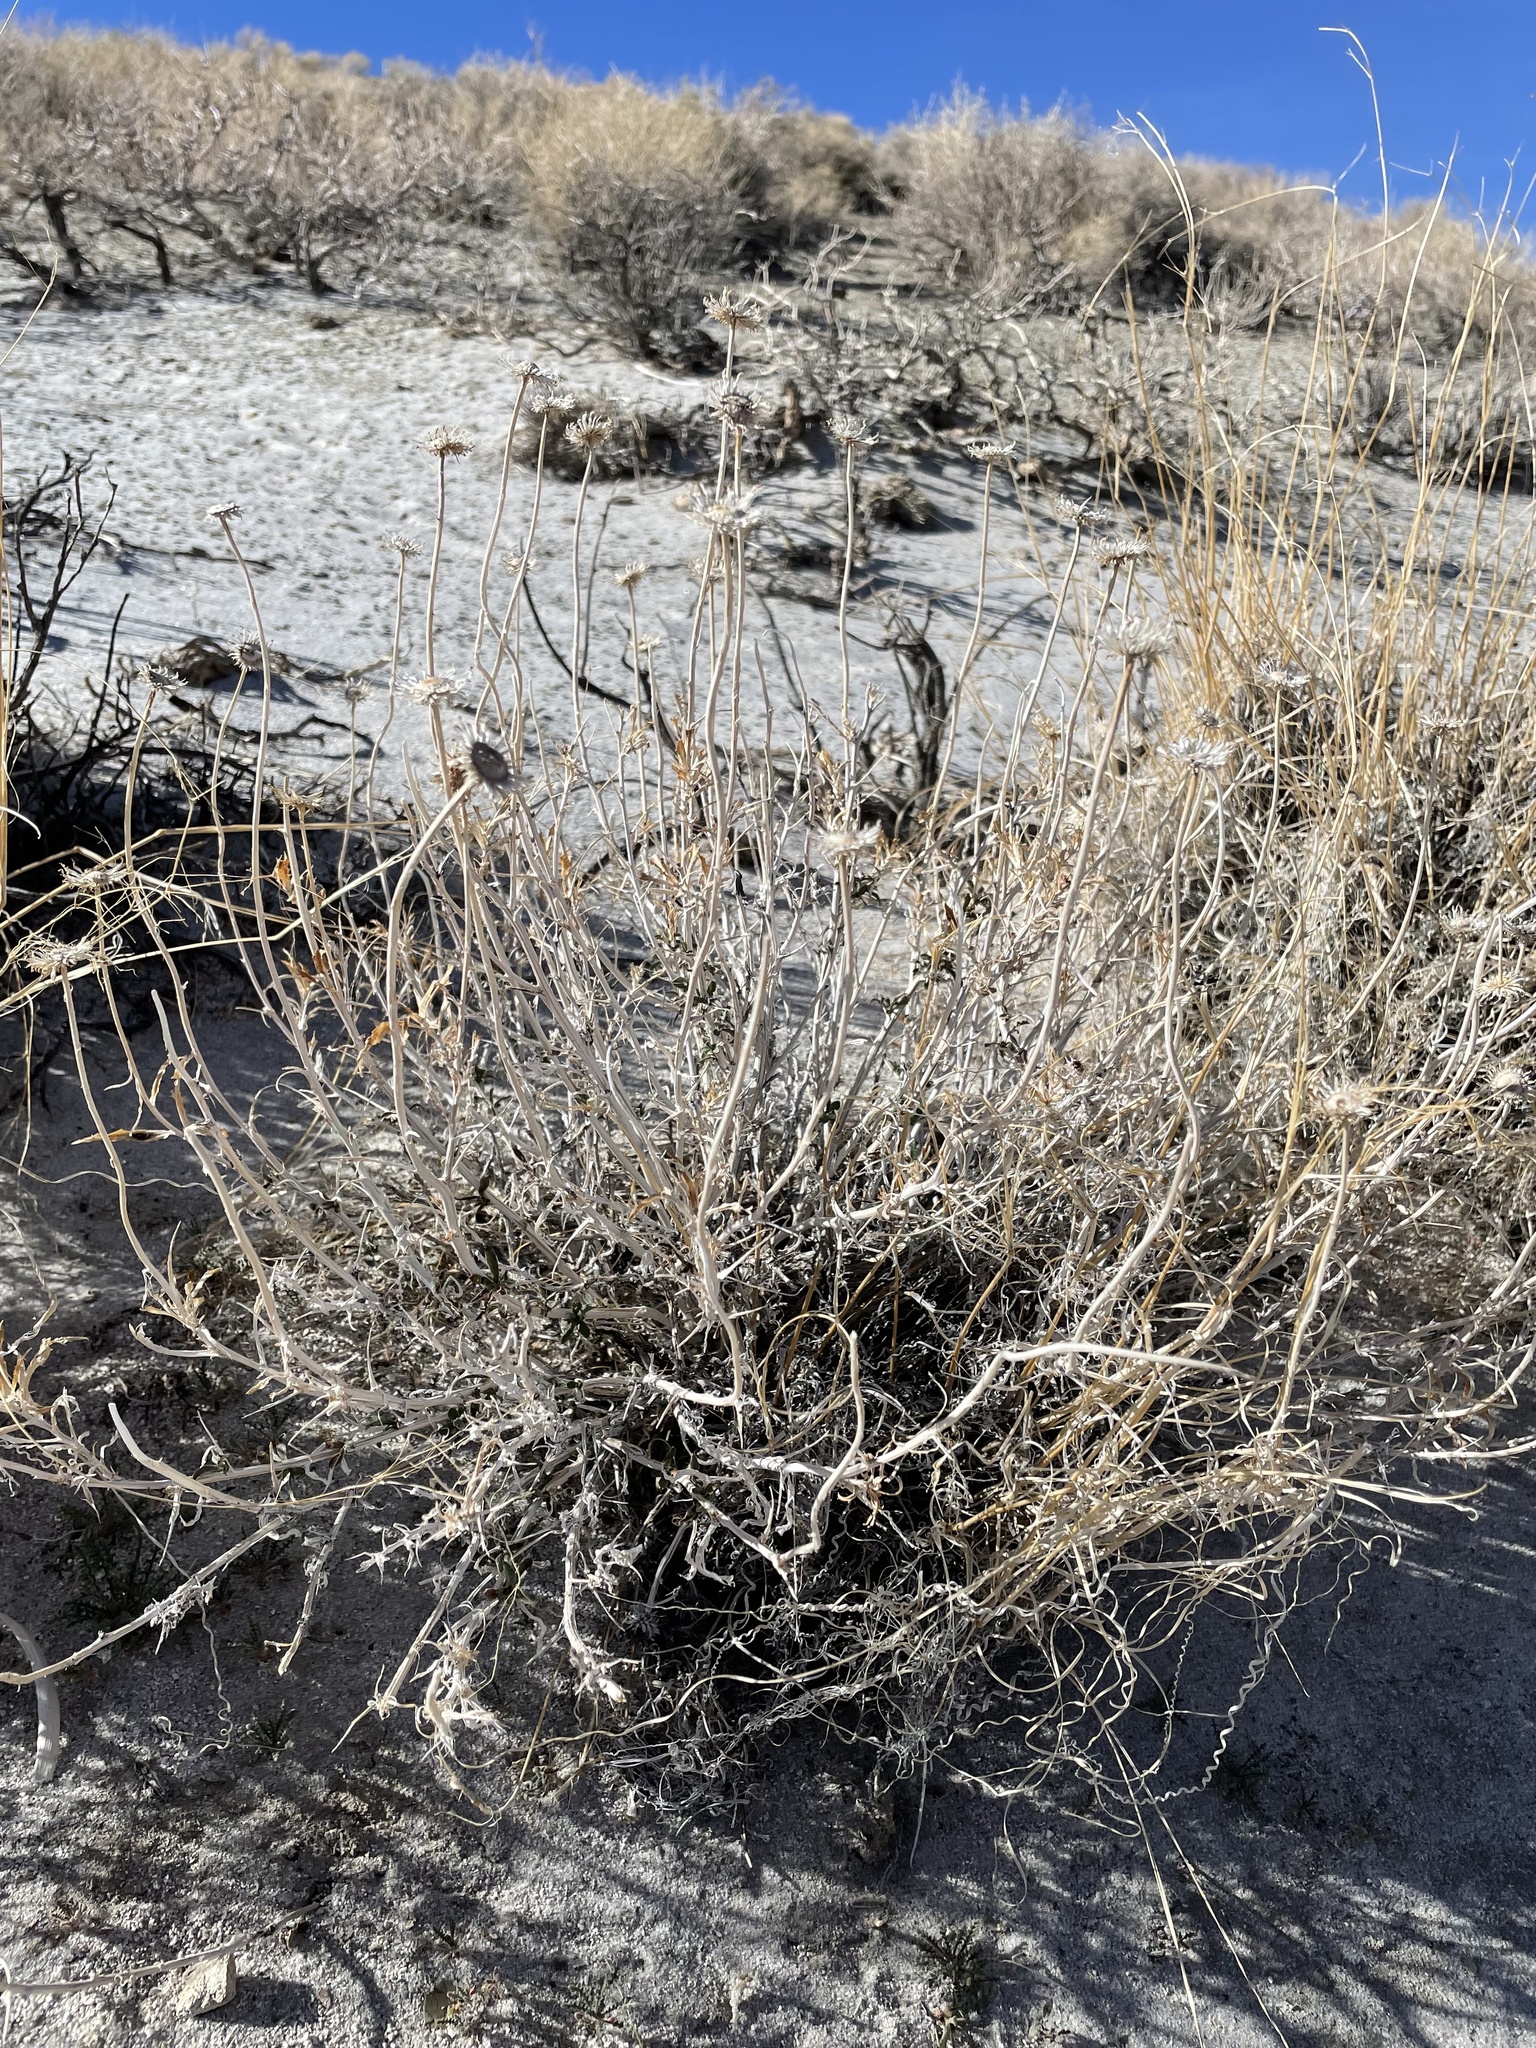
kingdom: Plantae
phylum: Tracheophyta
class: Magnoliopsida
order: Asterales
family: Asteraceae
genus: Xylorhiza
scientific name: Xylorhiza tortifolia
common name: Hurt-leaf woody-aster
